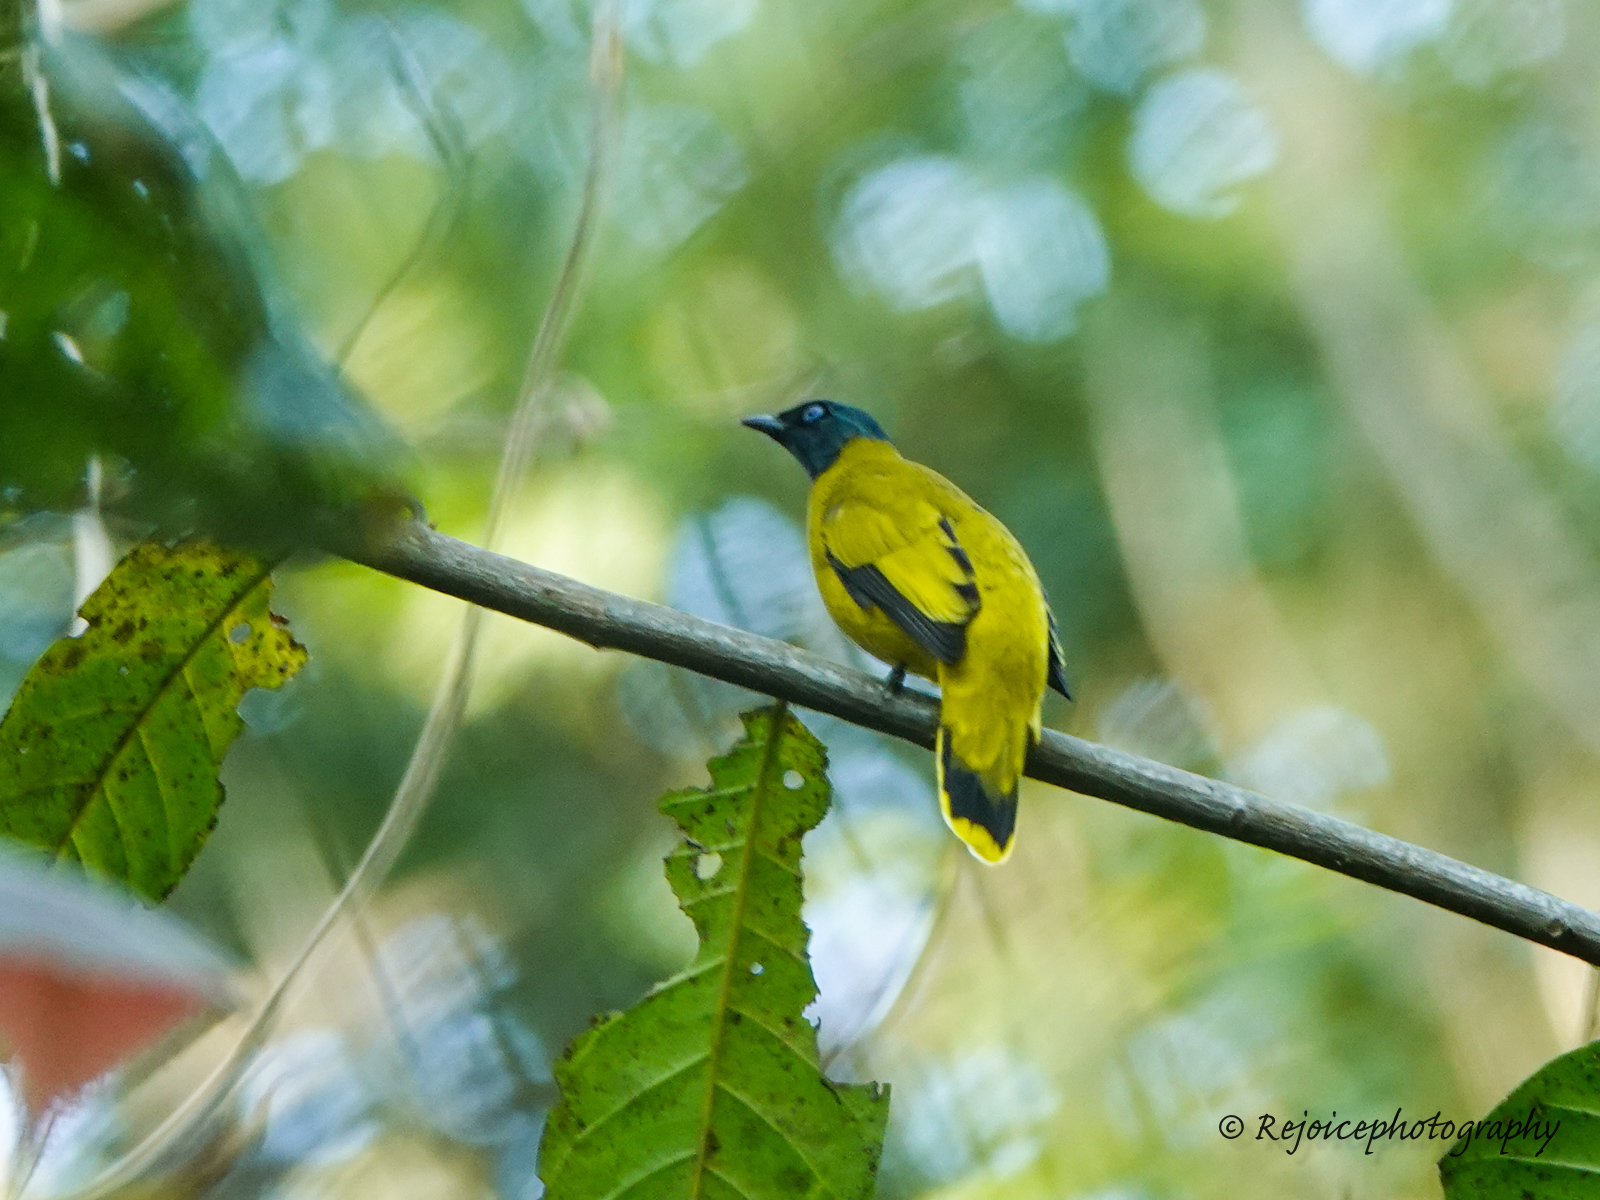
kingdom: Animalia
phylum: Chordata
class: Aves
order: Passeriformes
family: Pycnonotidae
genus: Microtarsus
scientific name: Microtarsus
